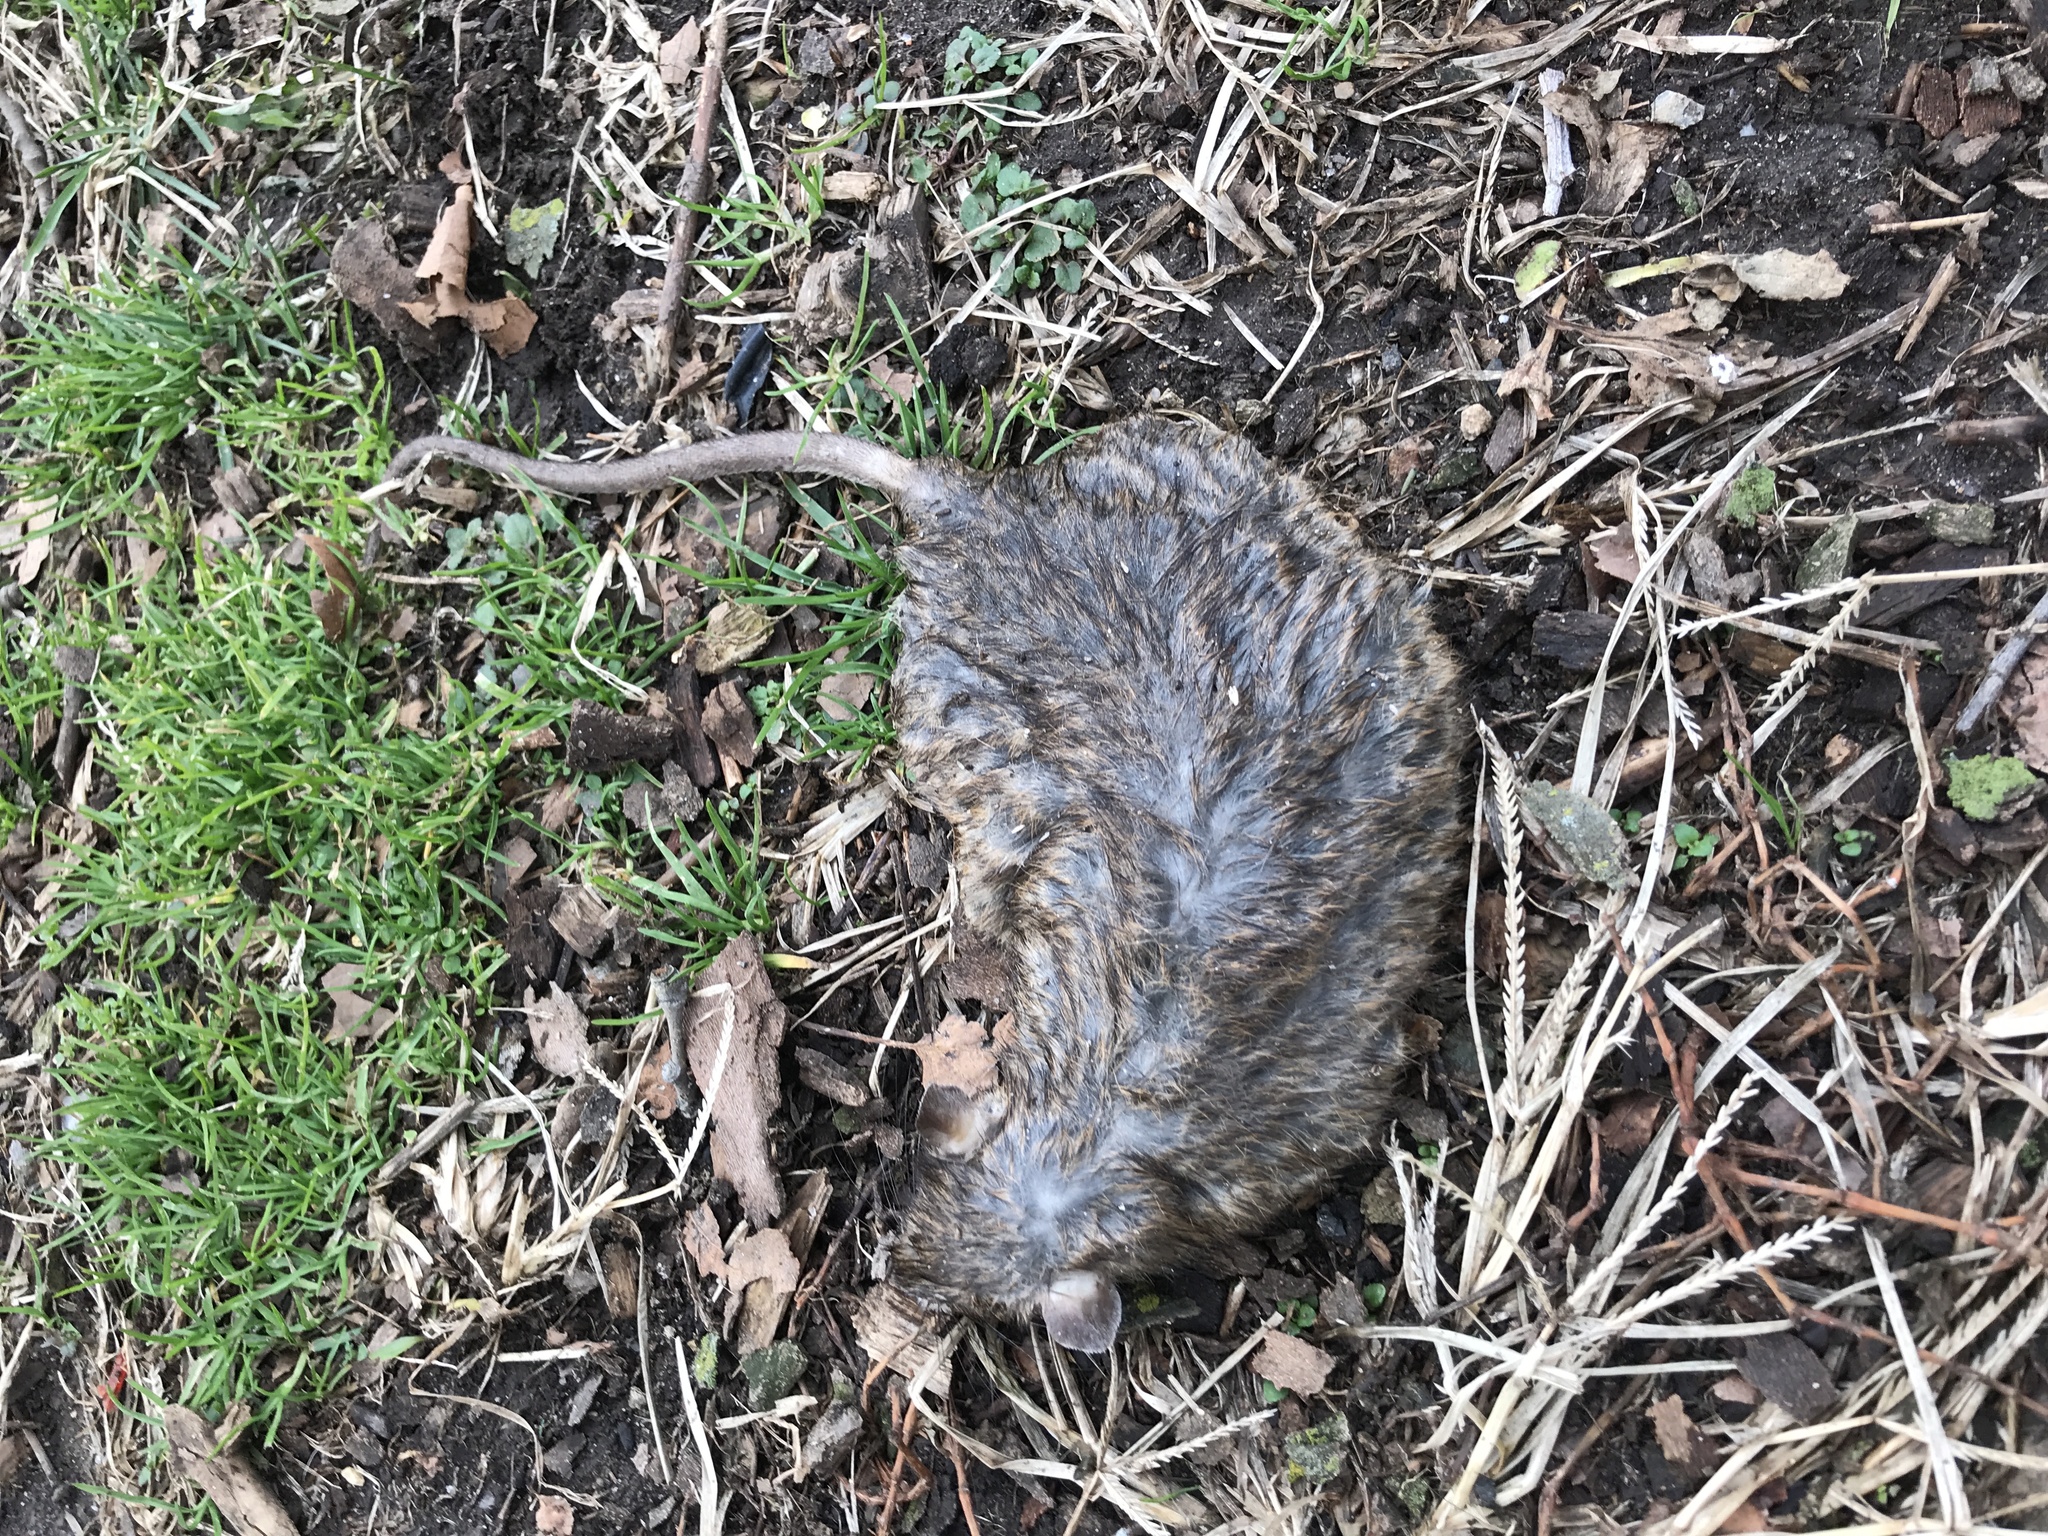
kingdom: Animalia
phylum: Chordata
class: Mammalia
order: Rodentia
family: Muridae
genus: Rattus
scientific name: Rattus norvegicus
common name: Brown rat
